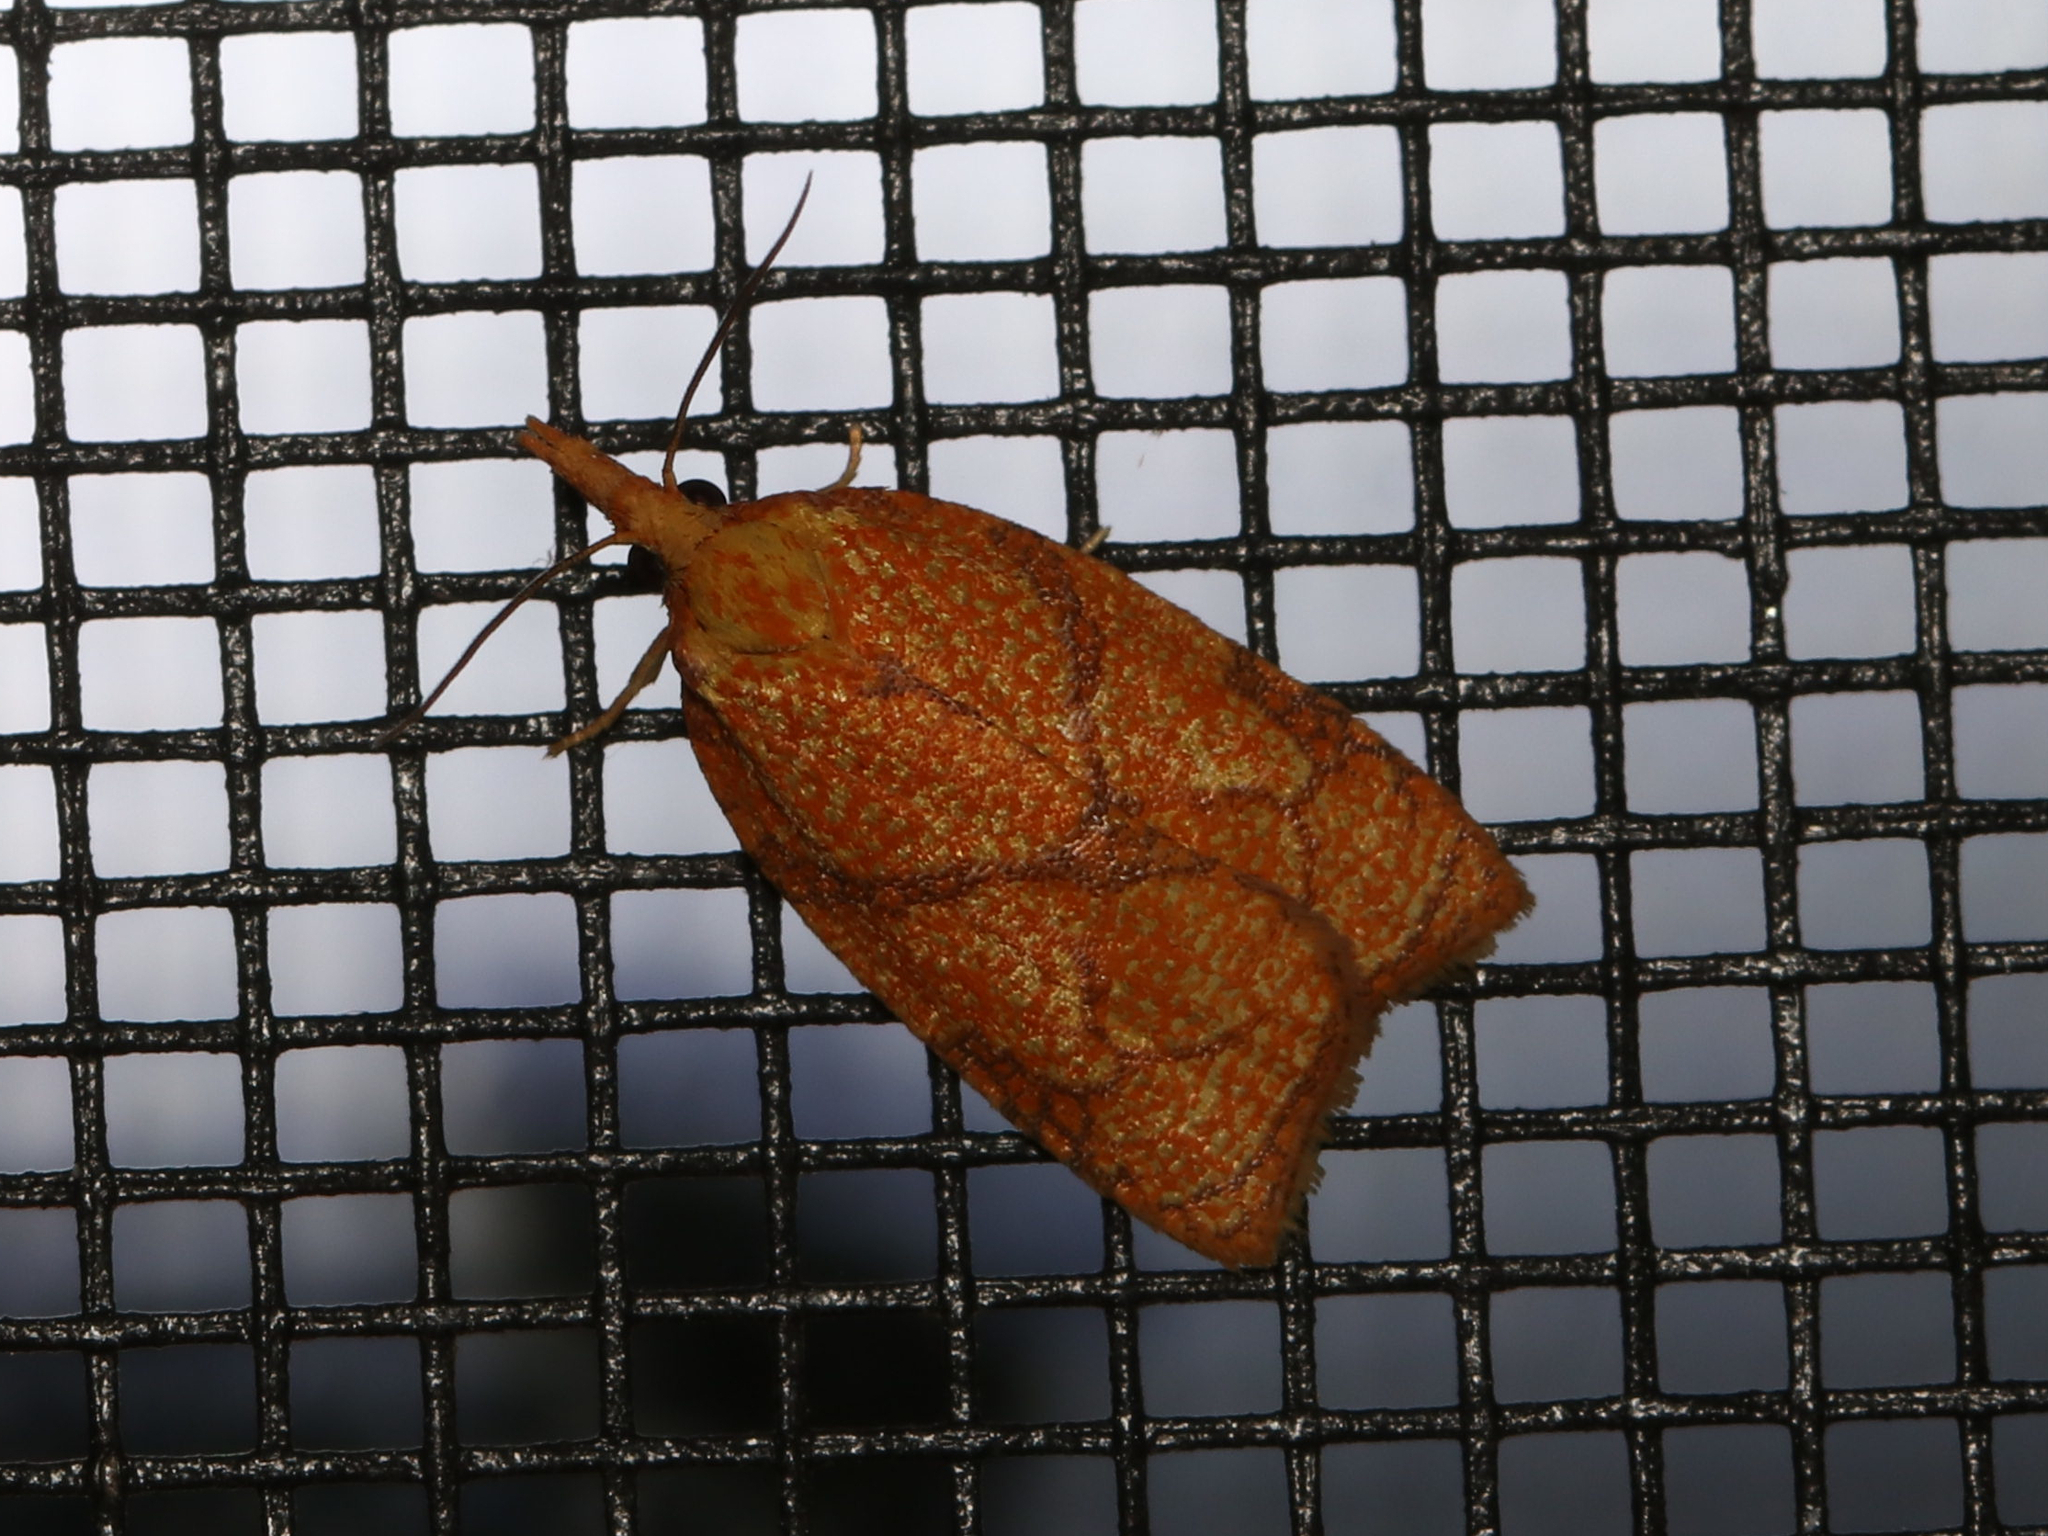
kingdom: Animalia
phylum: Arthropoda
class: Insecta
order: Lepidoptera
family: Tortricidae
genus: Cenopis
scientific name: Cenopis reticulatana
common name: Reticulated fruitworm moth
